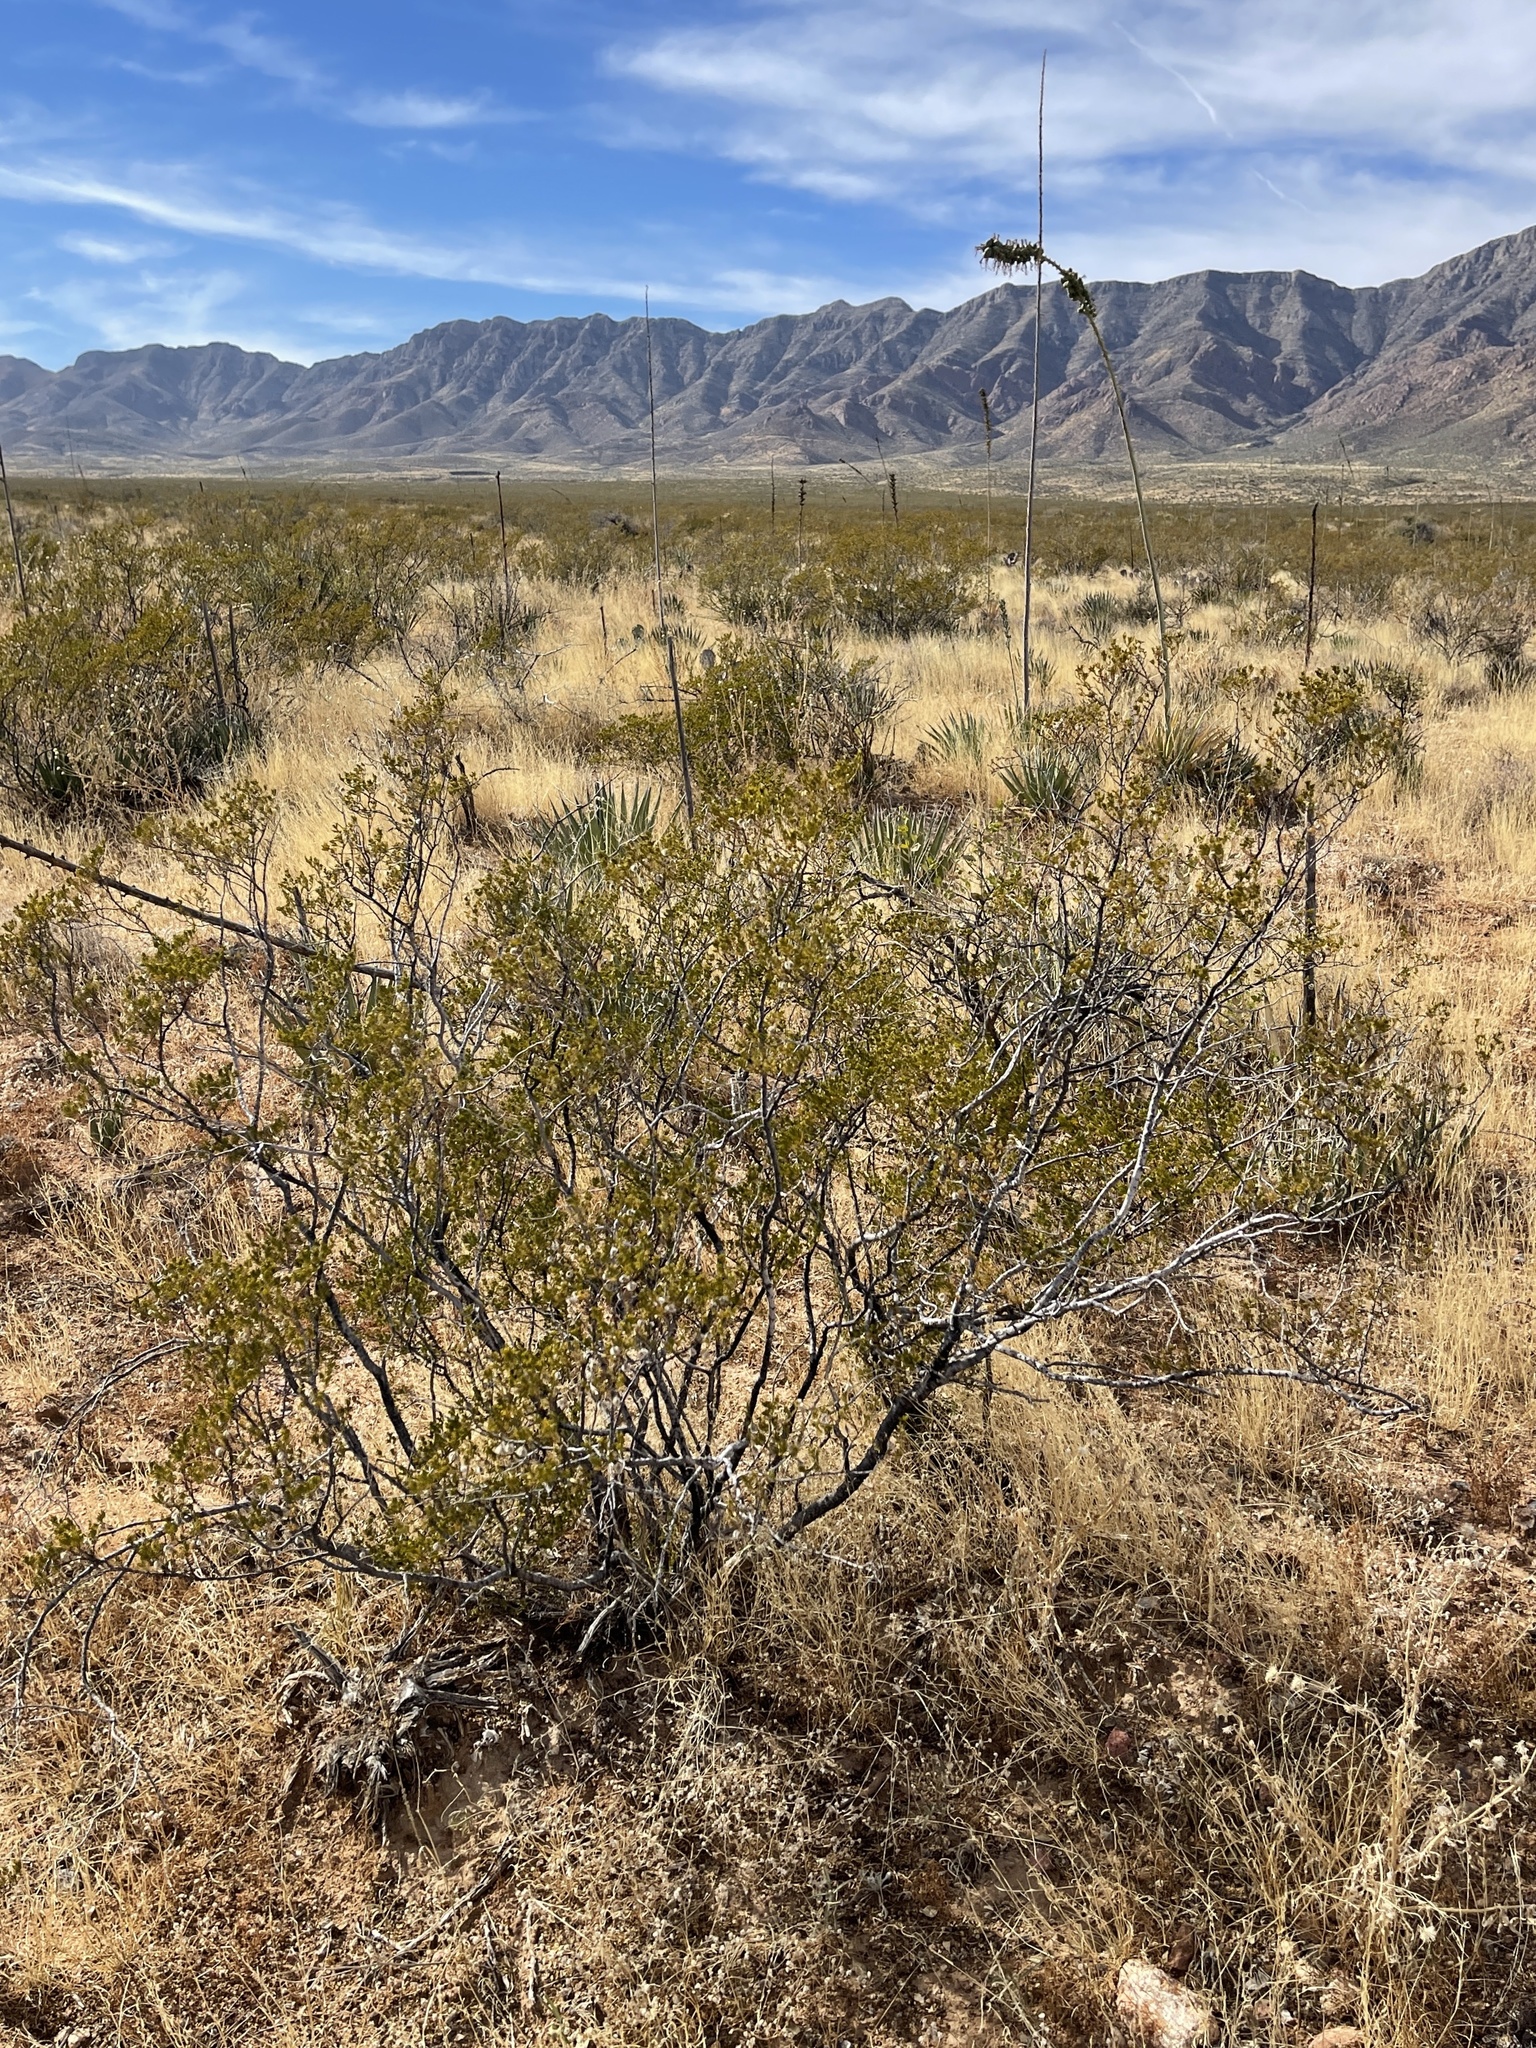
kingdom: Plantae
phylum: Tracheophyta
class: Magnoliopsida
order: Zygophyllales
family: Zygophyllaceae
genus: Larrea
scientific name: Larrea tridentata
